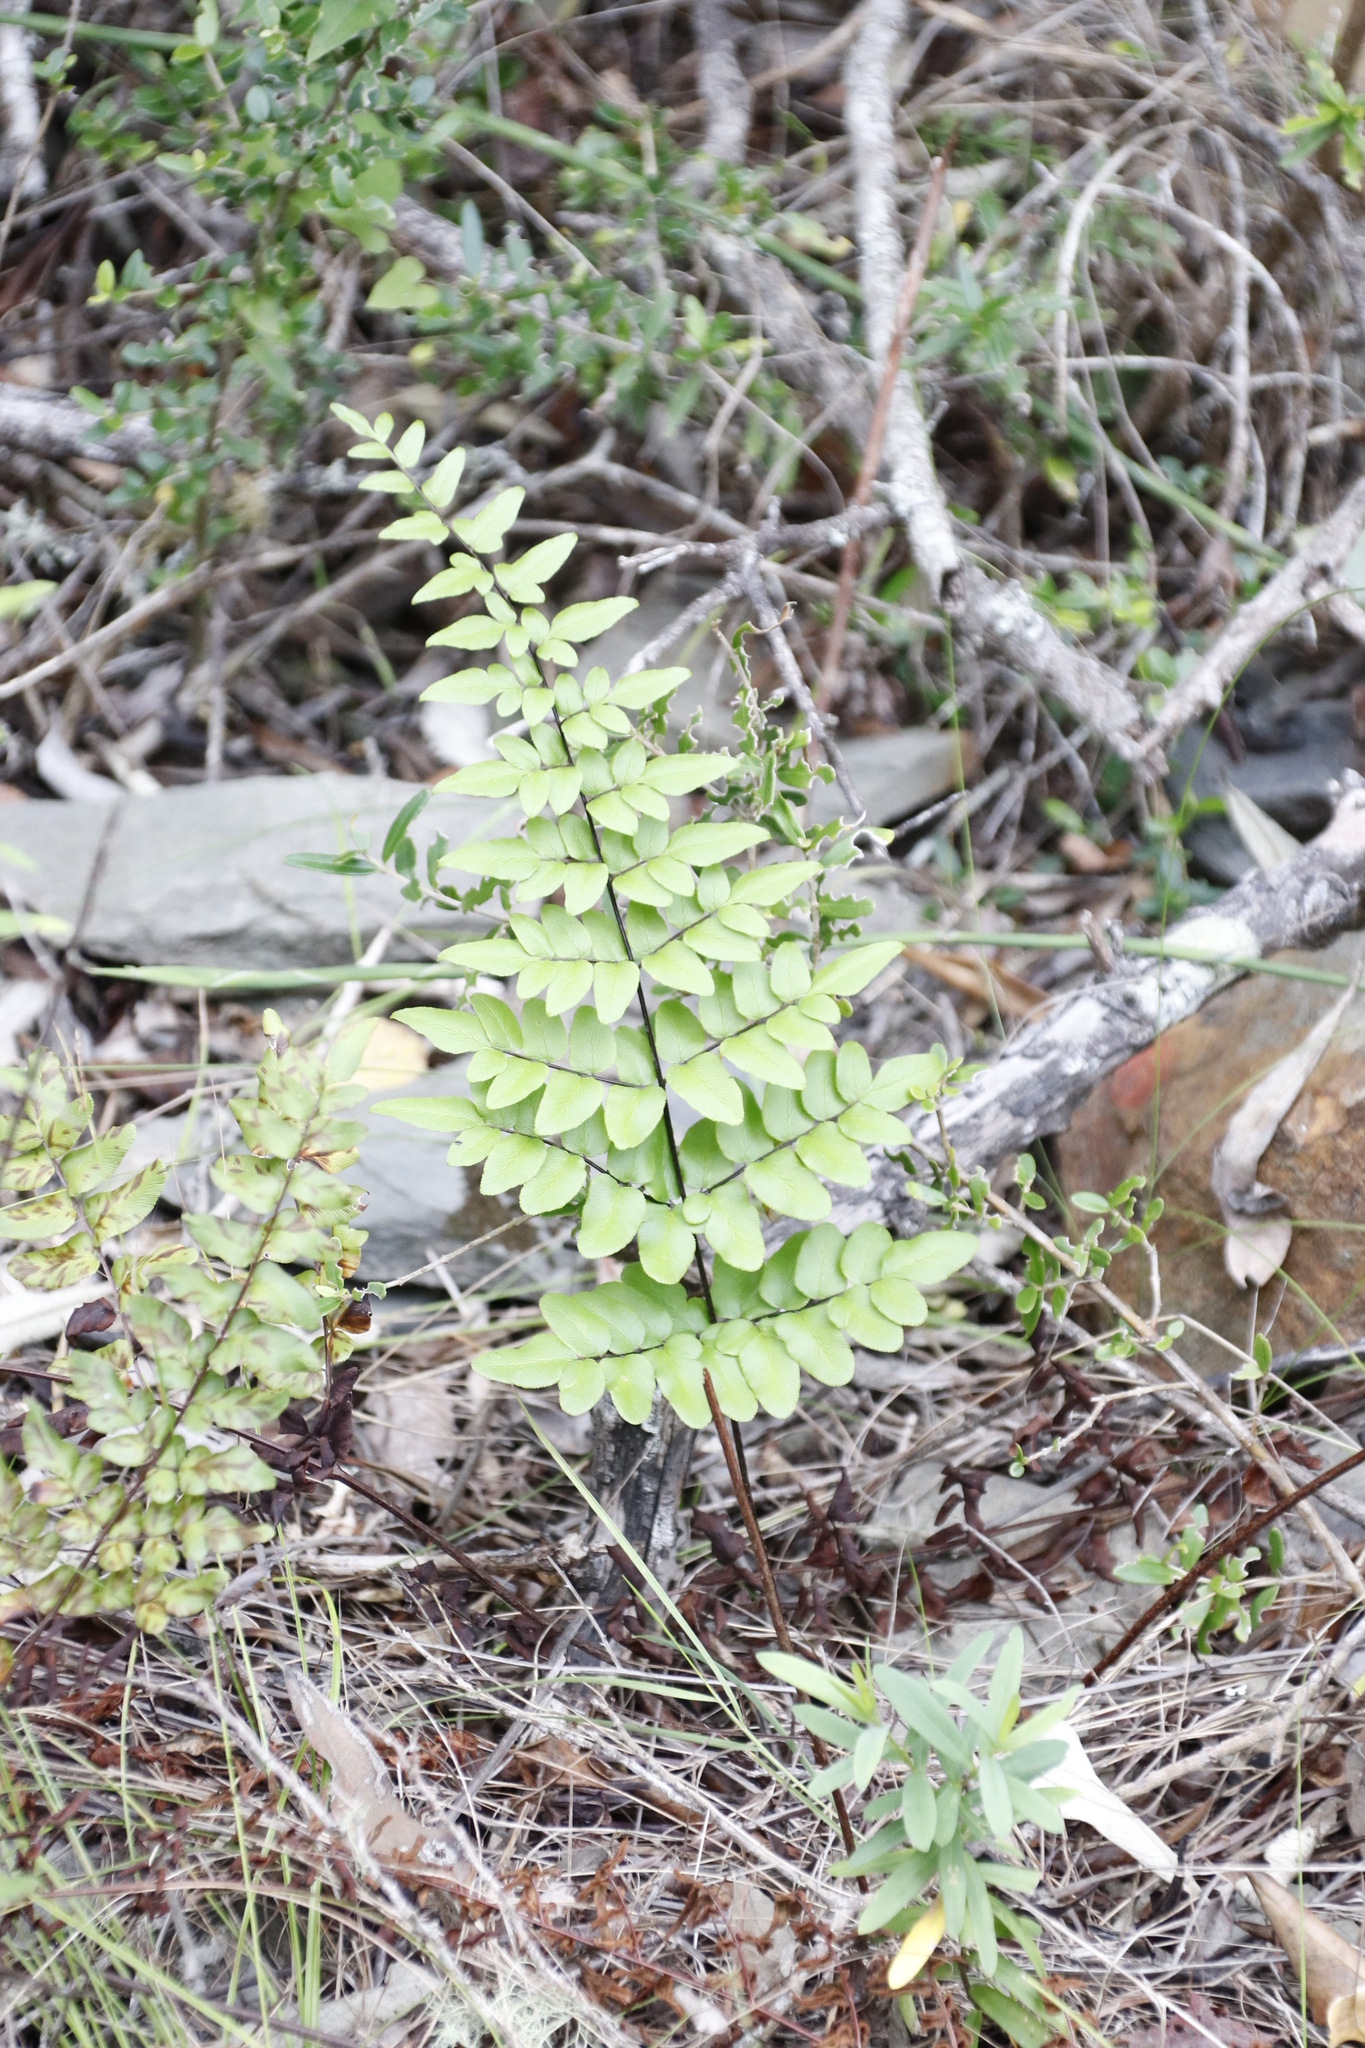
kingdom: Plantae
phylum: Tracheophyta
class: Polypodiopsida
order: Polypodiales
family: Pteridaceae
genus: Cheilanthes
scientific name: Cheilanthes viridis
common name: Green cliffbrake
